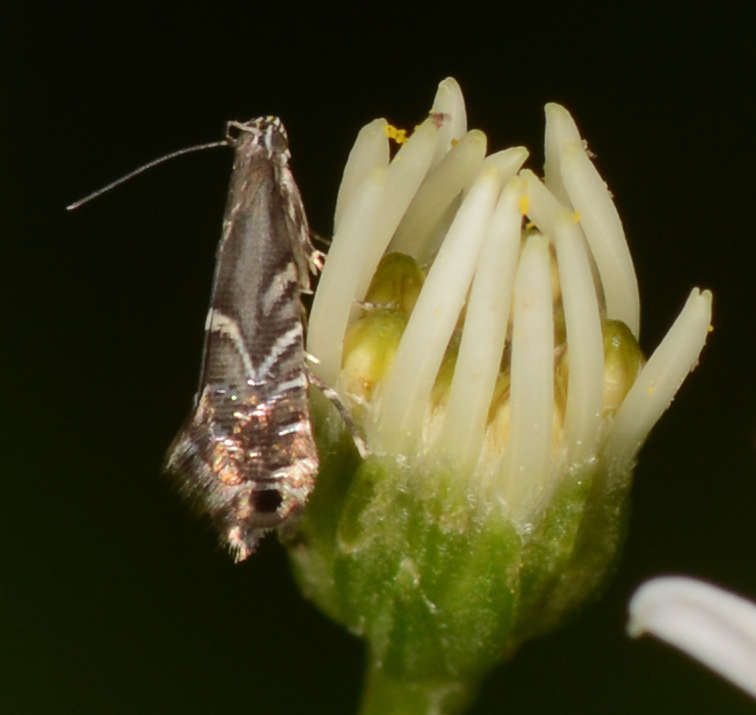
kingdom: Animalia
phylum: Arthropoda
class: Insecta
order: Lepidoptera
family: Glyphipterigidae
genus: Glyphipterix
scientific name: Glyphipterix gonoteles
